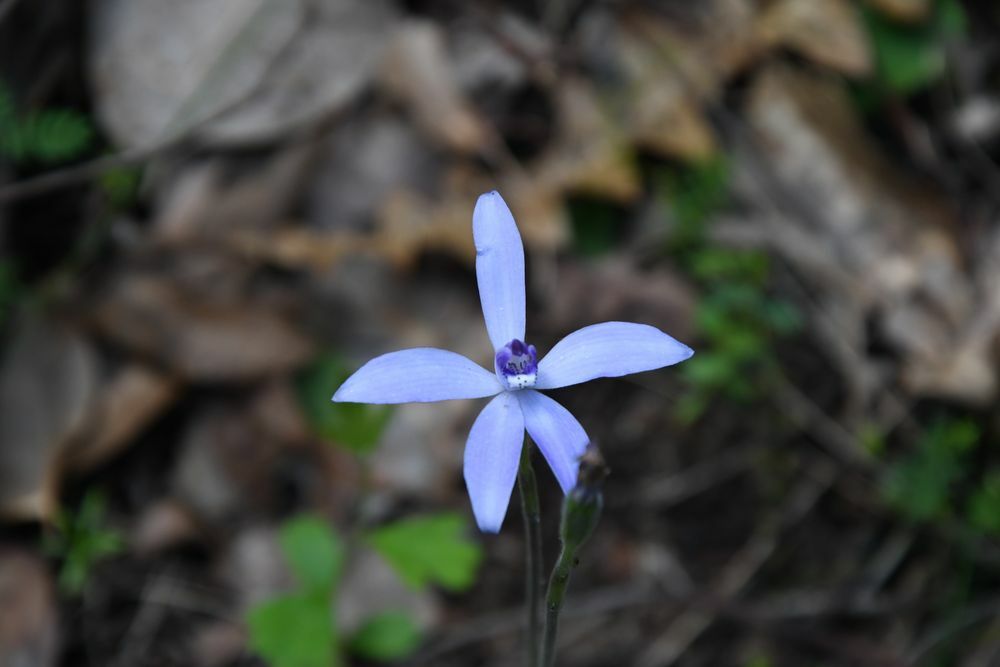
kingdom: Plantae
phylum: Tracheophyta
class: Liliopsida
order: Asparagales
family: Orchidaceae
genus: Caladenia
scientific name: Caladenia sericea
